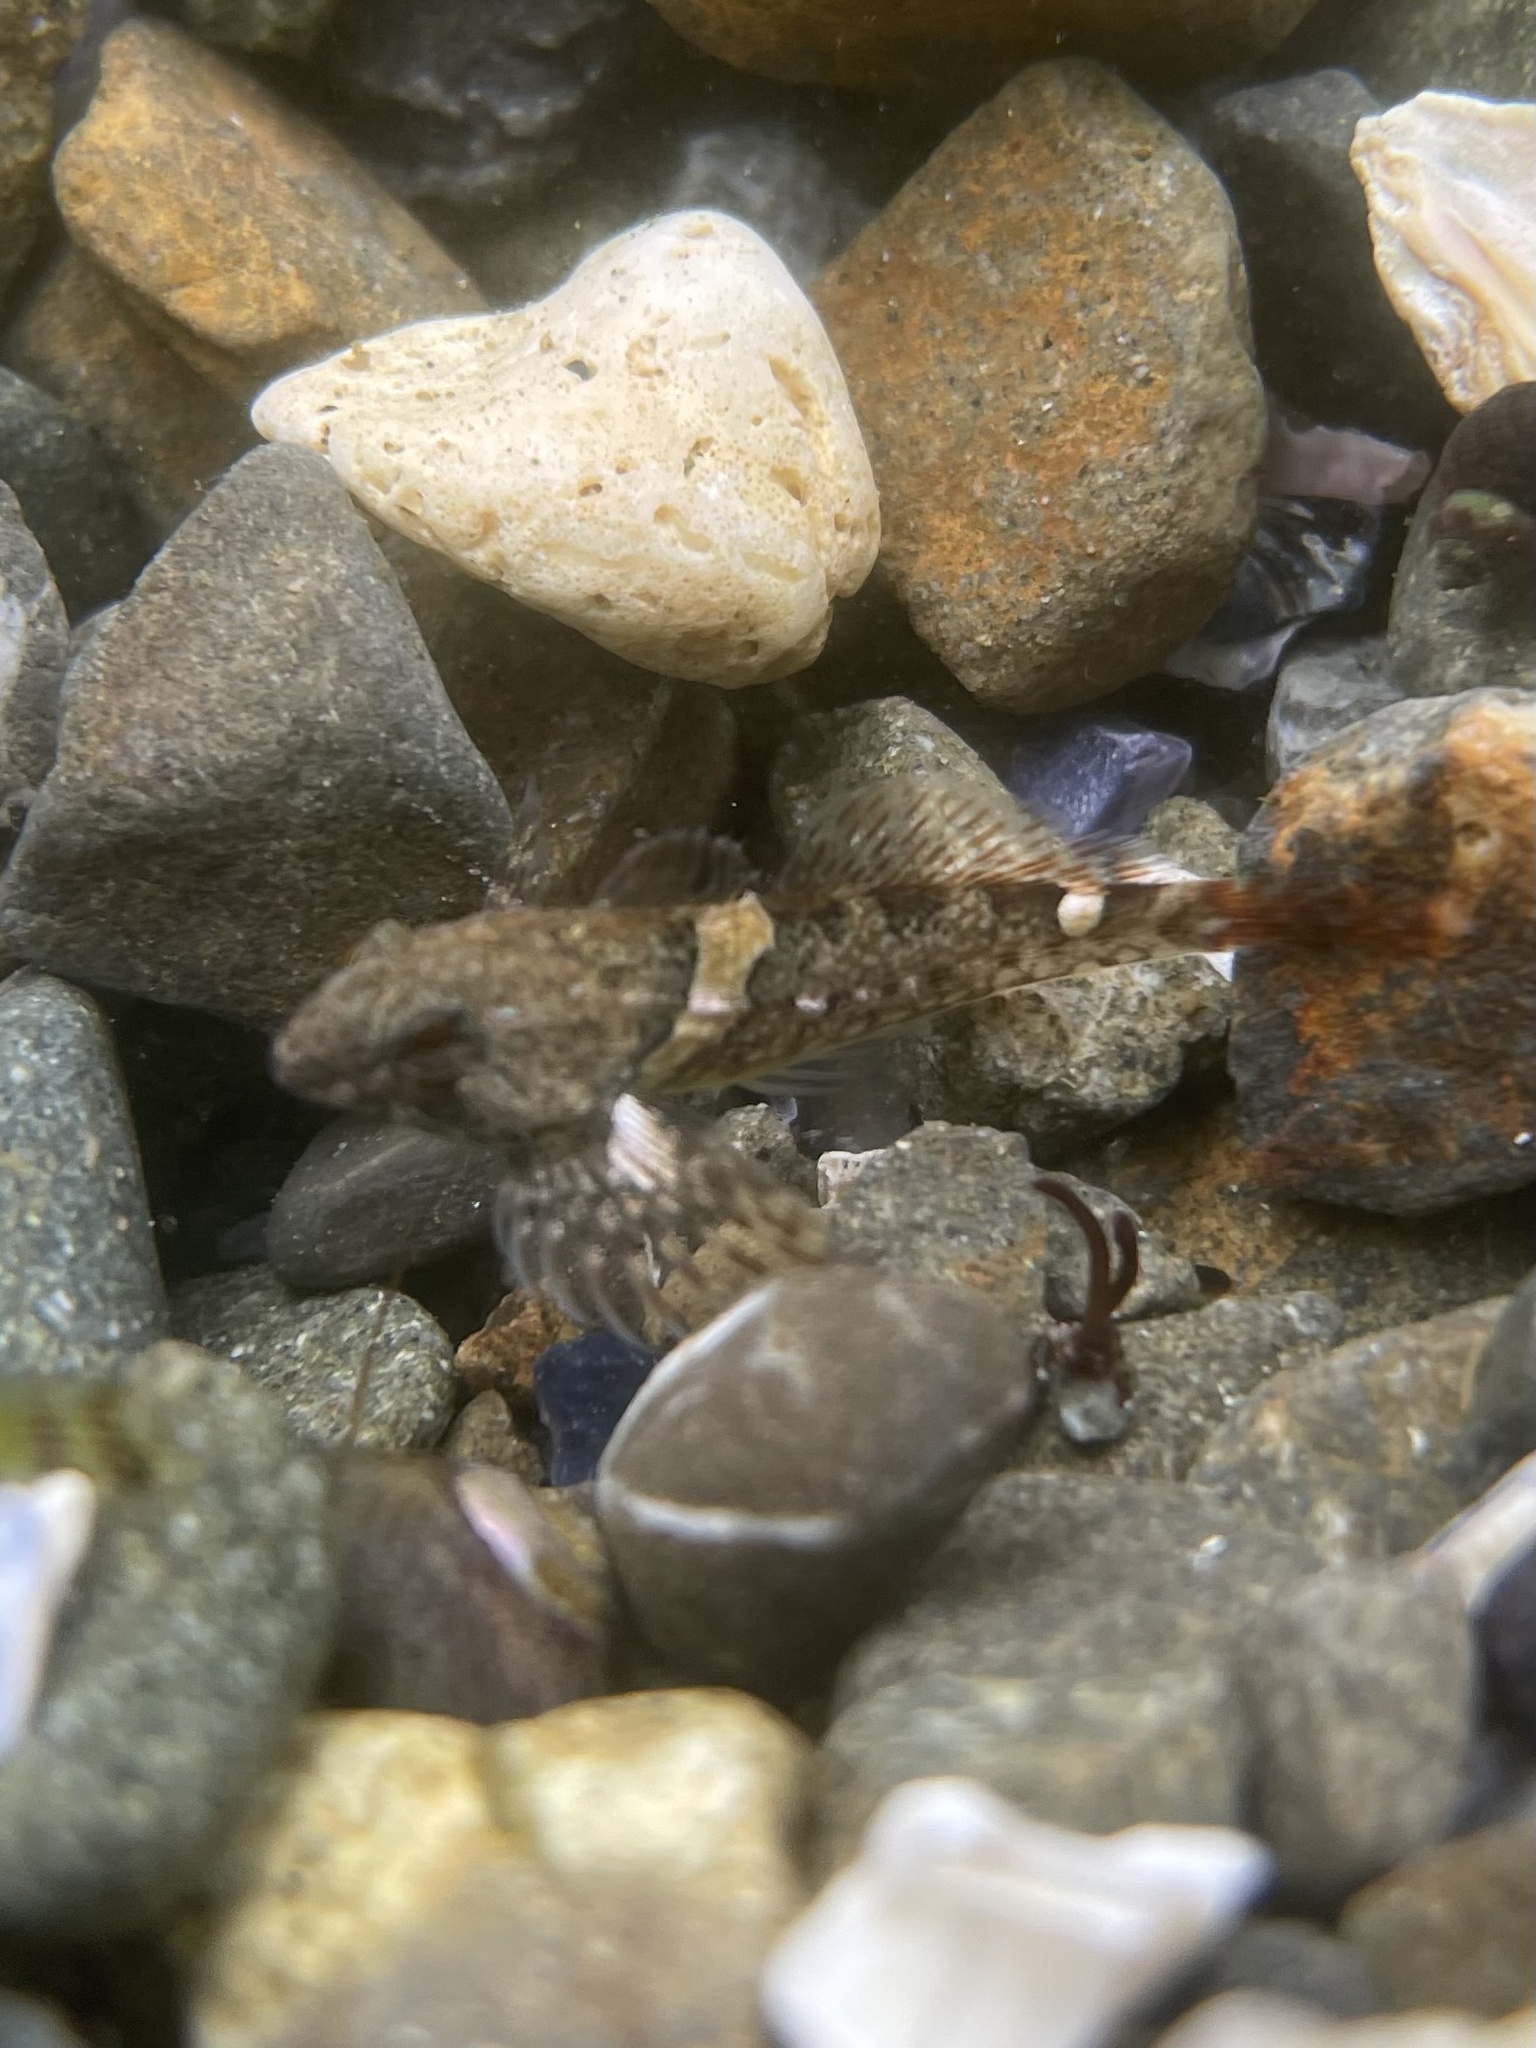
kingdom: Animalia
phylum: Chordata
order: Scorpaeniformes
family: Cottidae
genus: Oligocottus
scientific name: Oligocottus maculosus
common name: Tidepool sculpin
